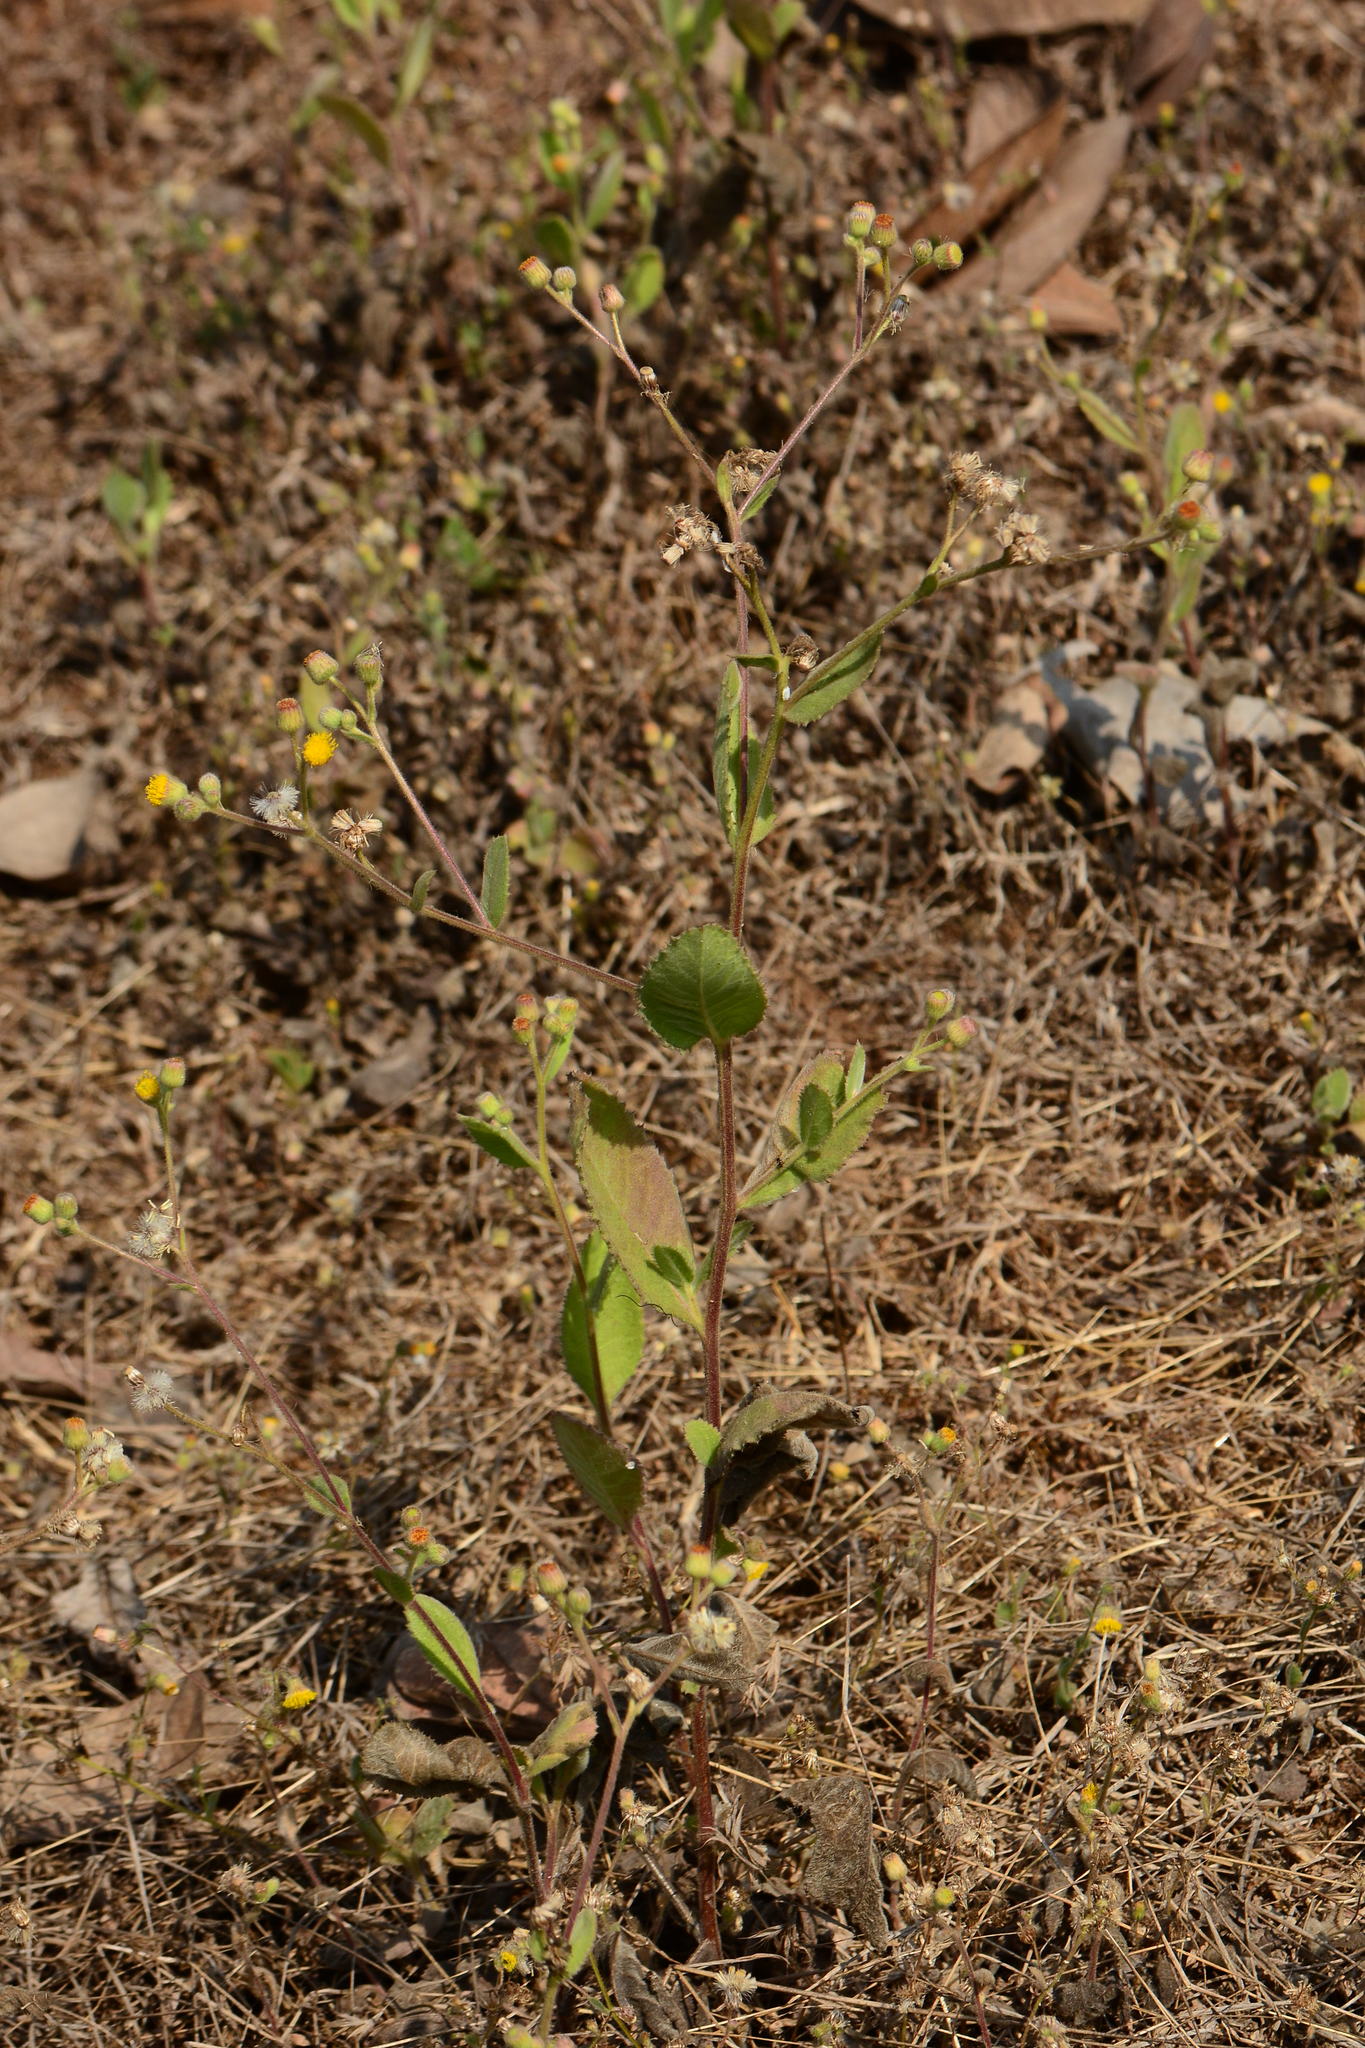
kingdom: Plantae
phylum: Tracheophyta
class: Magnoliopsida
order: Asterales
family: Asteraceae
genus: Blumea
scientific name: Blumea eriantha
